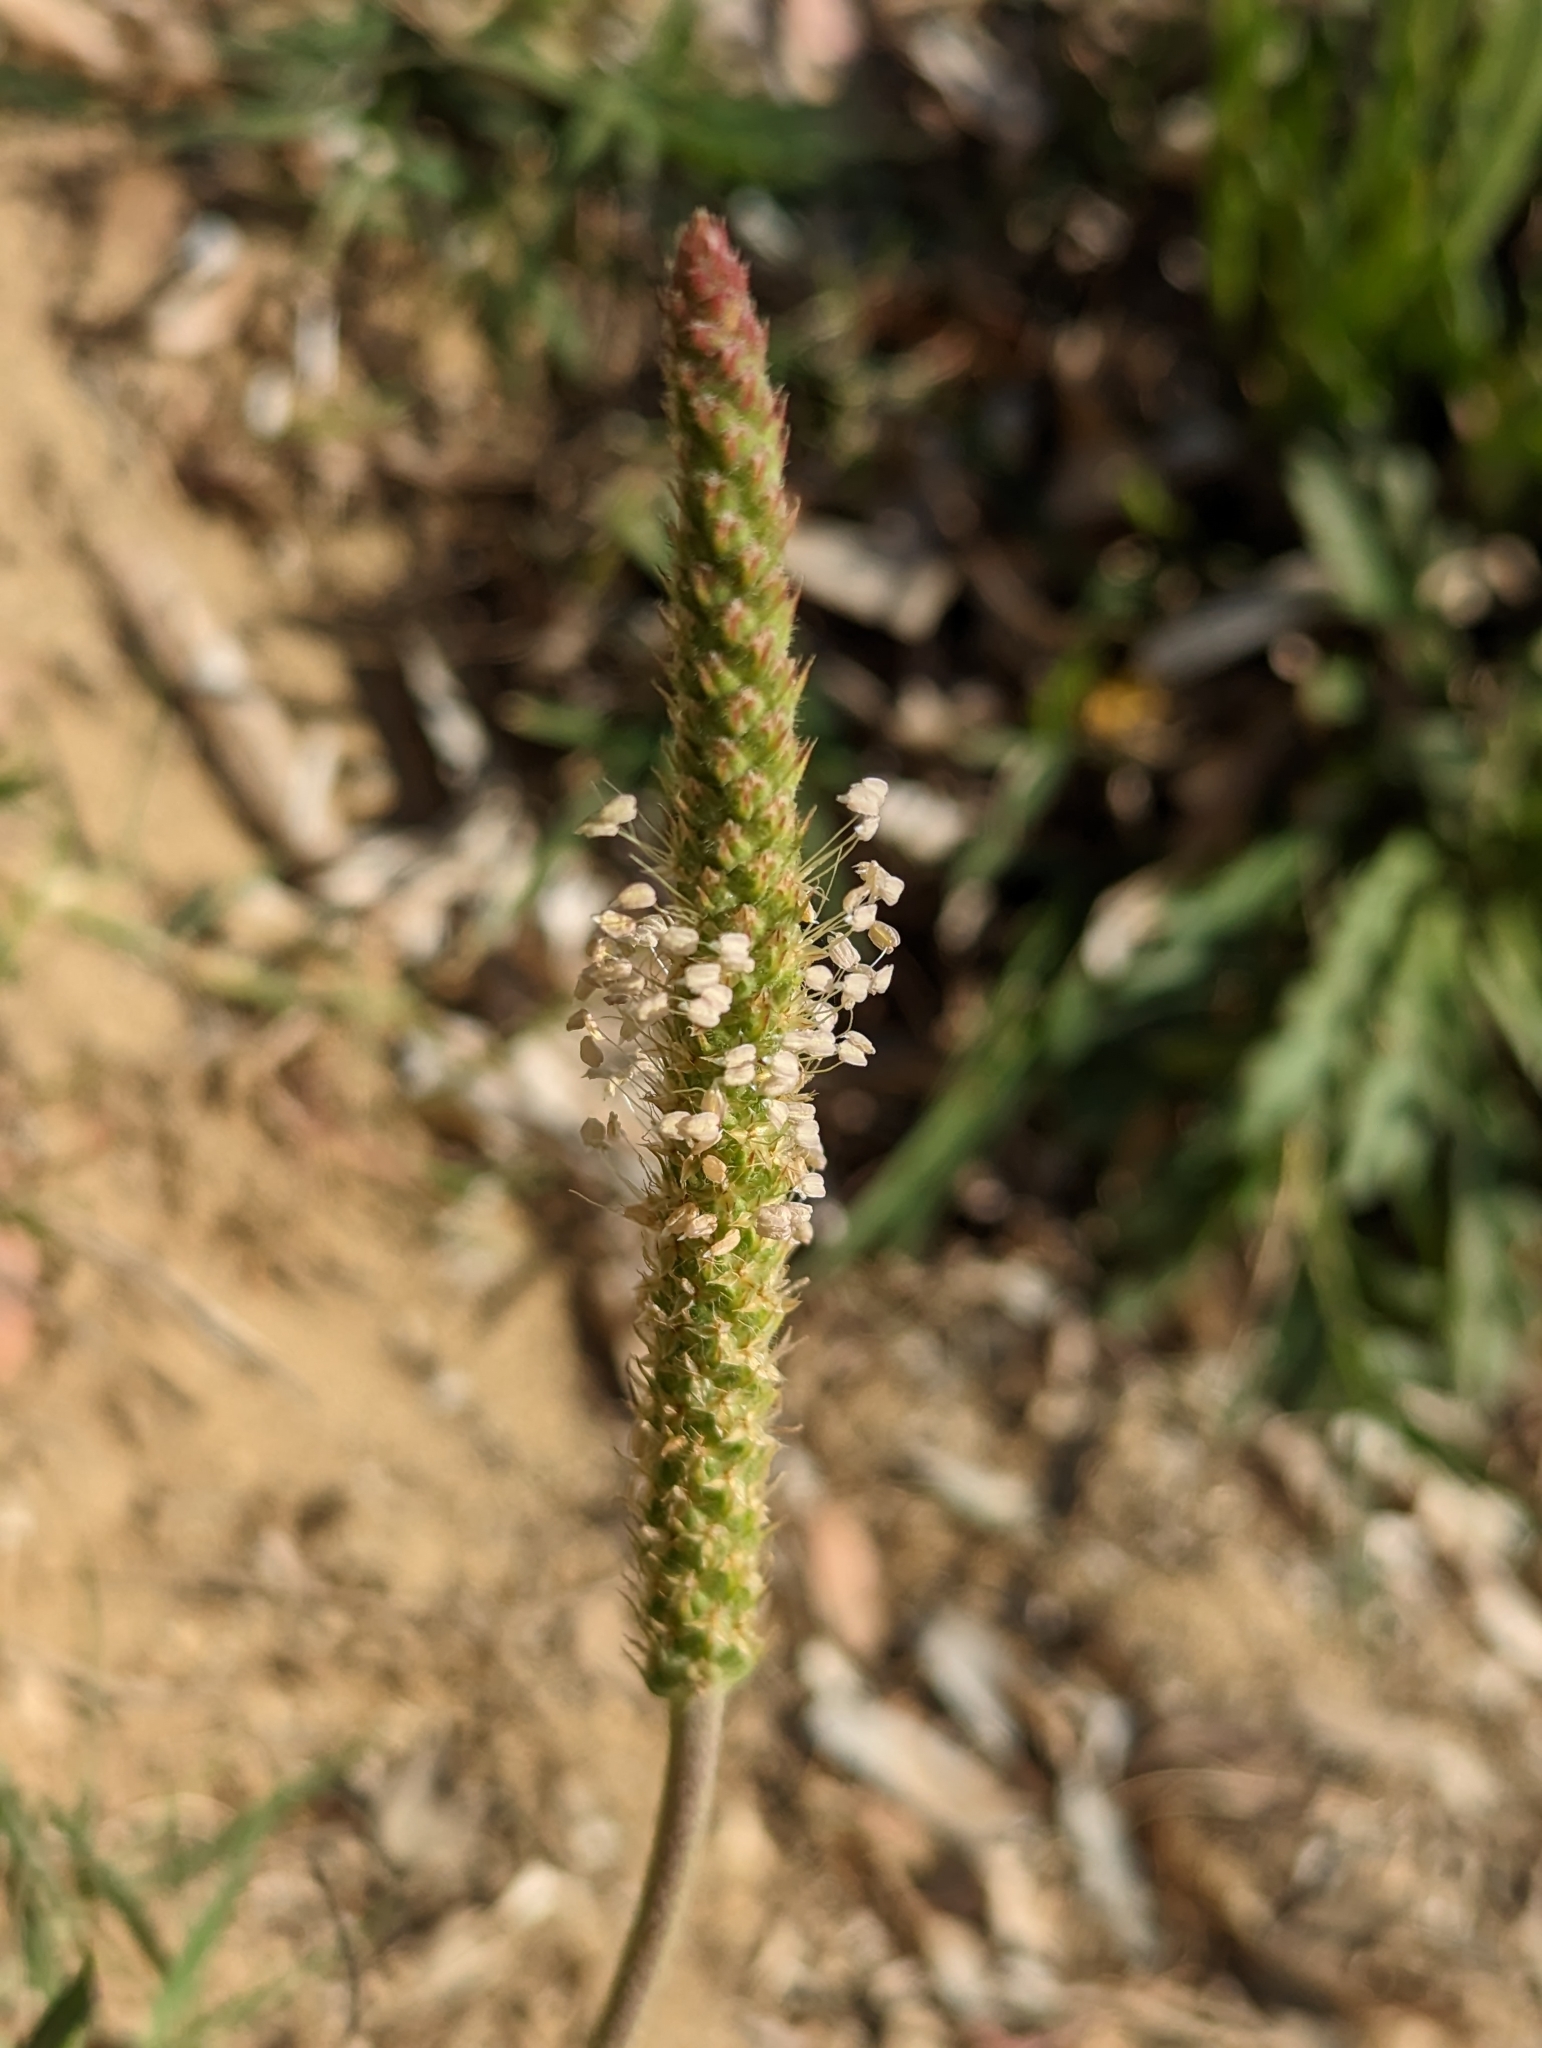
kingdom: Plantae
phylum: Tracheophyta
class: Magnoliopsida
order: Lamiales
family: Plantaginaceae
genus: Plantago
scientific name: Plantago coronopus
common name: Buck's-horn plantain
